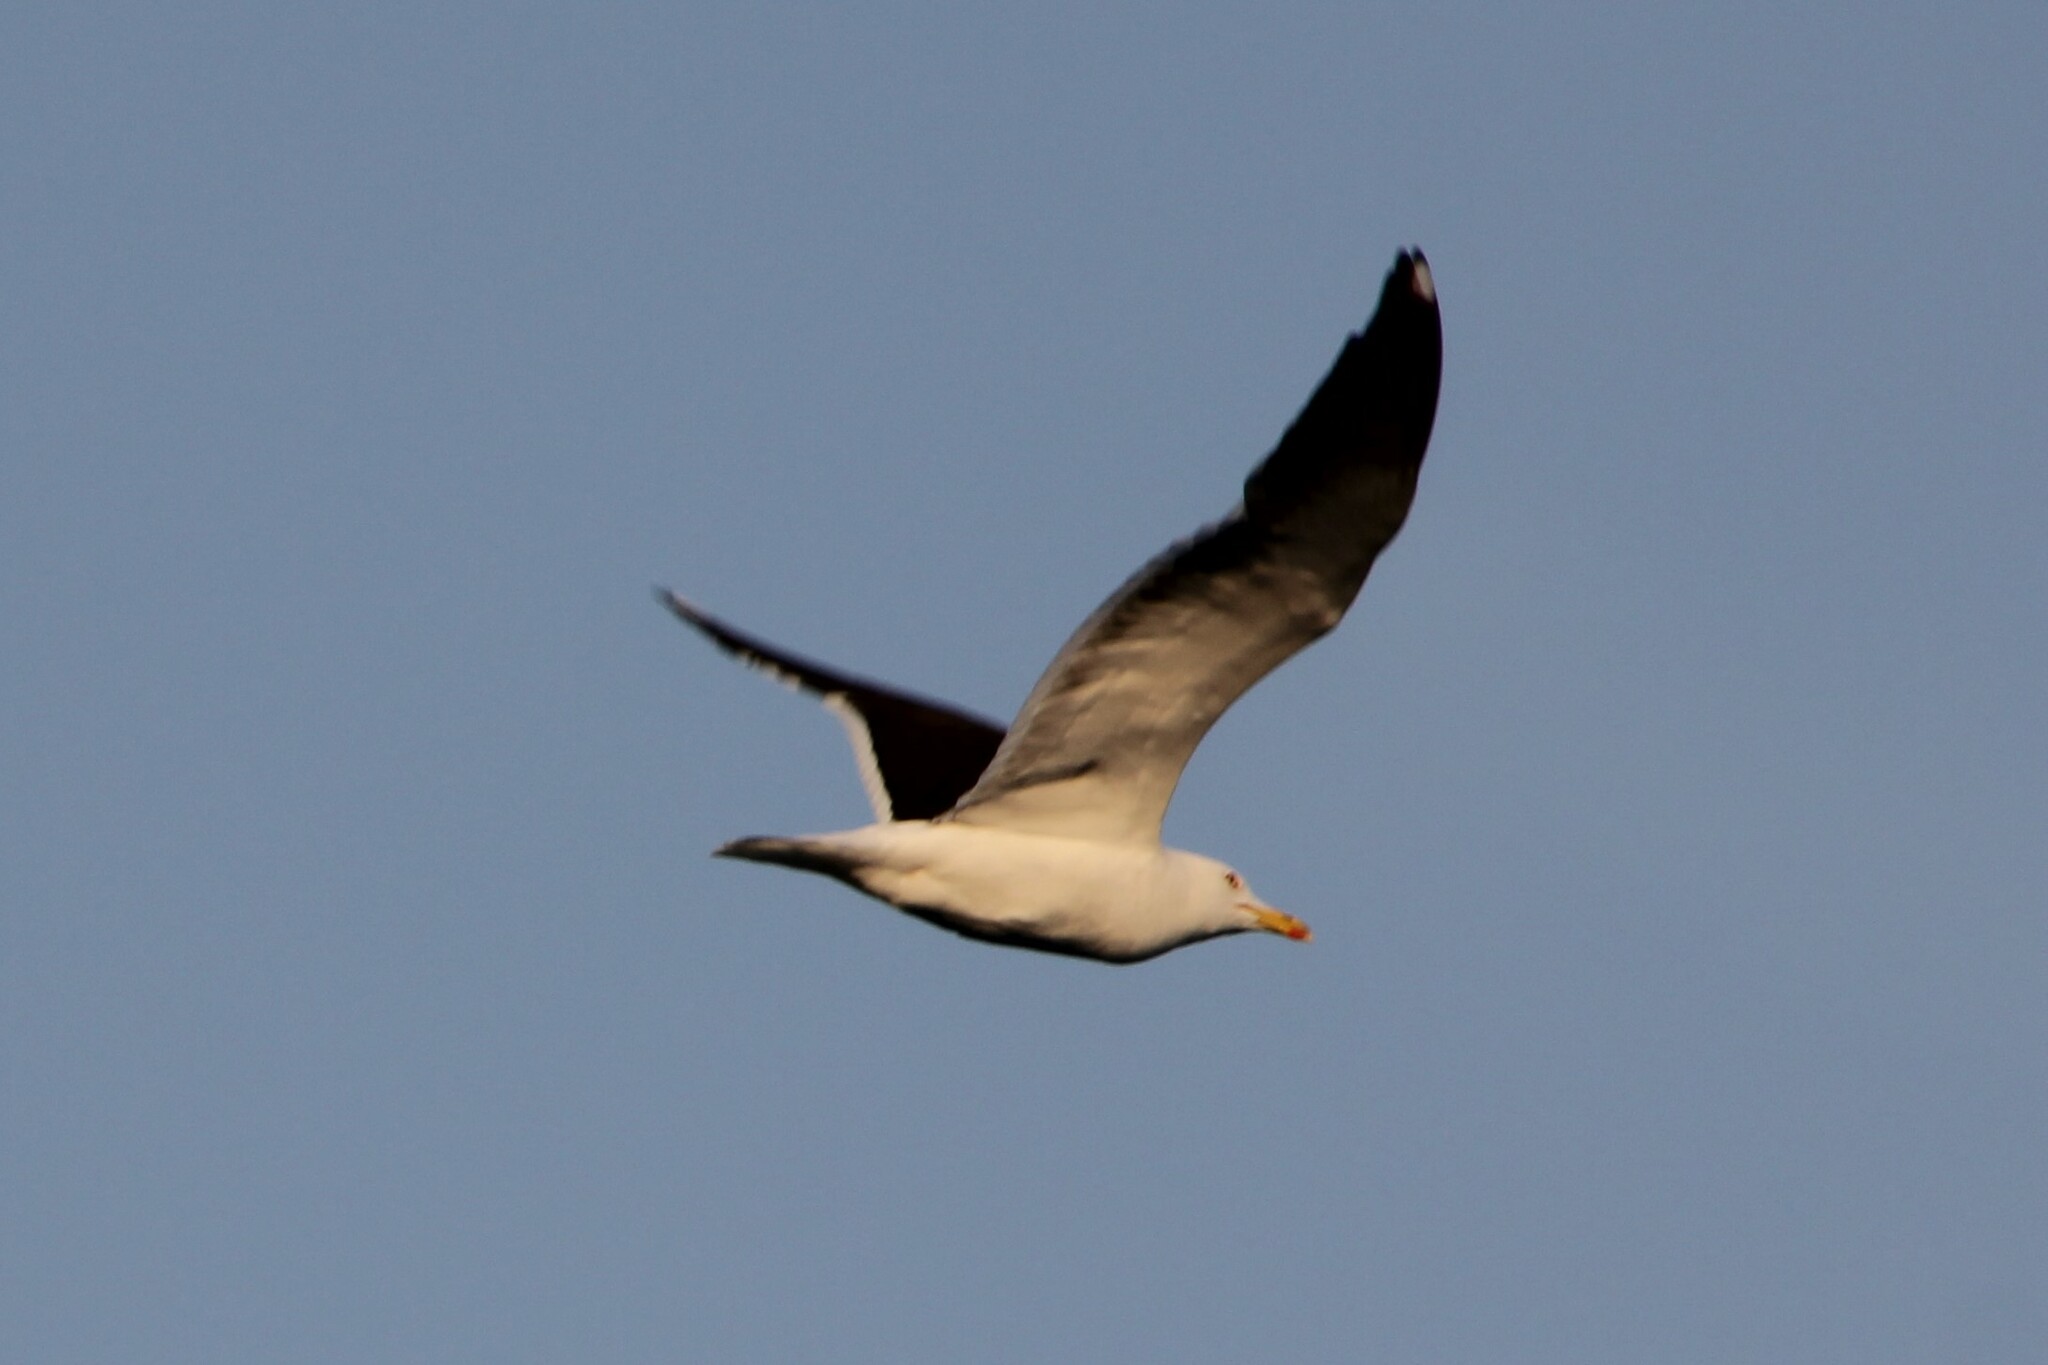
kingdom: Animalia
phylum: Chordata
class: Aves
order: Charadriiformes
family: Laridae
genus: Larus
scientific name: Larus fuscus
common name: Lesser black-backed gull
